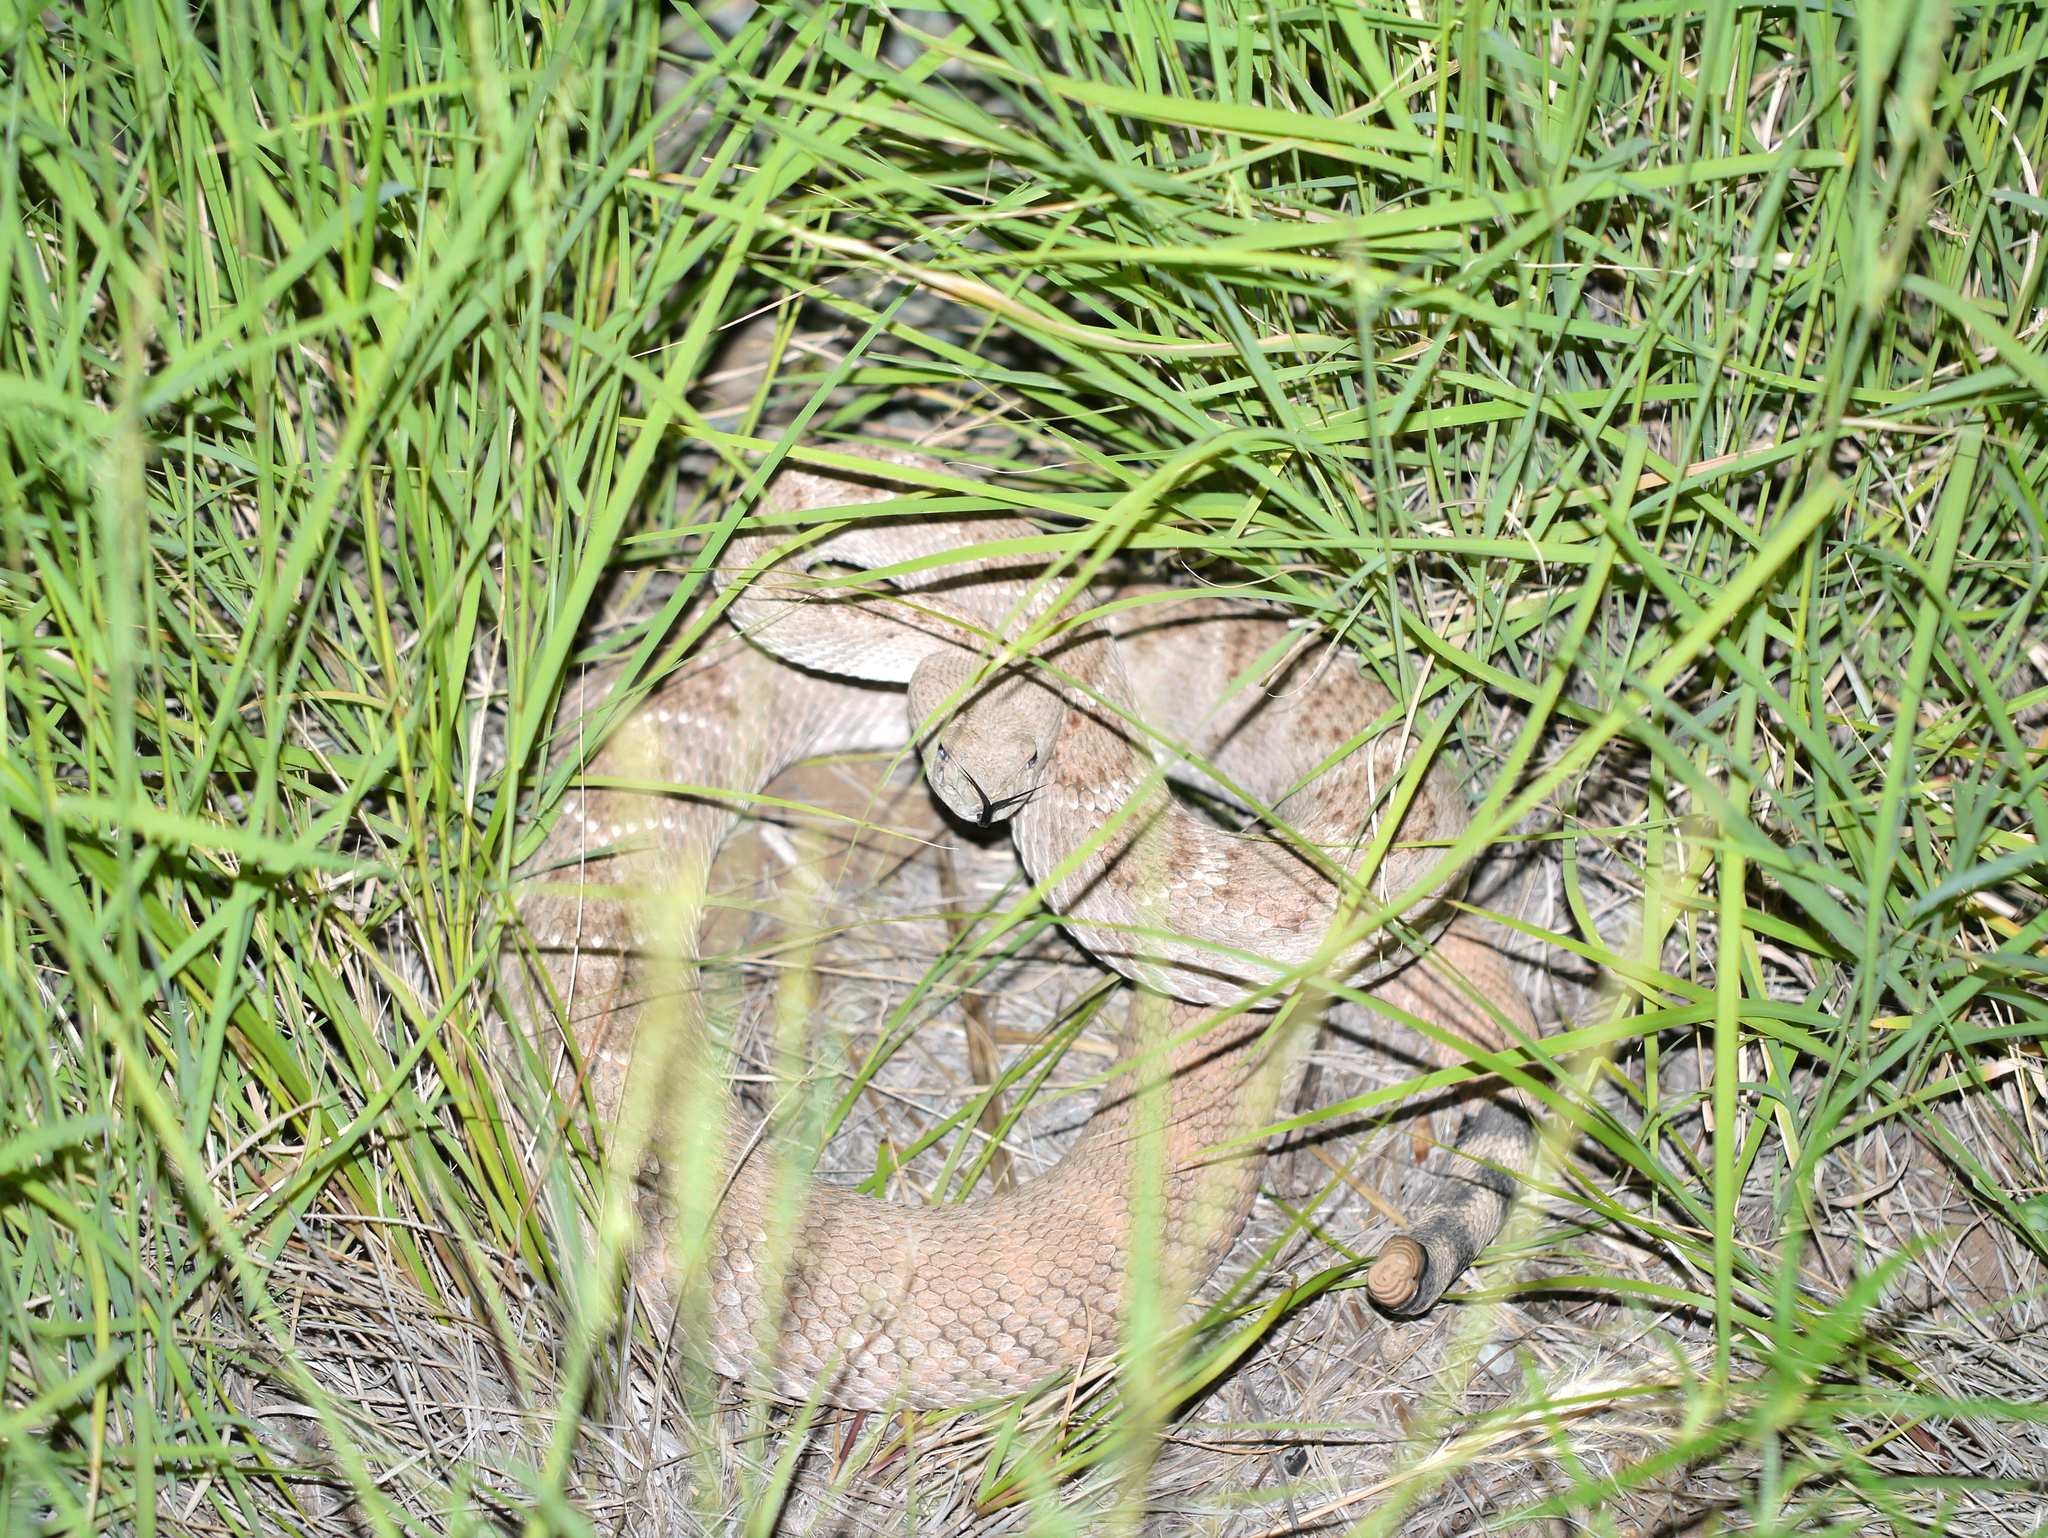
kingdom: Animalia
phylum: Chordata
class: Squamata
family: Viperidae
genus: Crotalus
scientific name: Crotalus atrox
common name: Western diamond-backed rattlesnake
